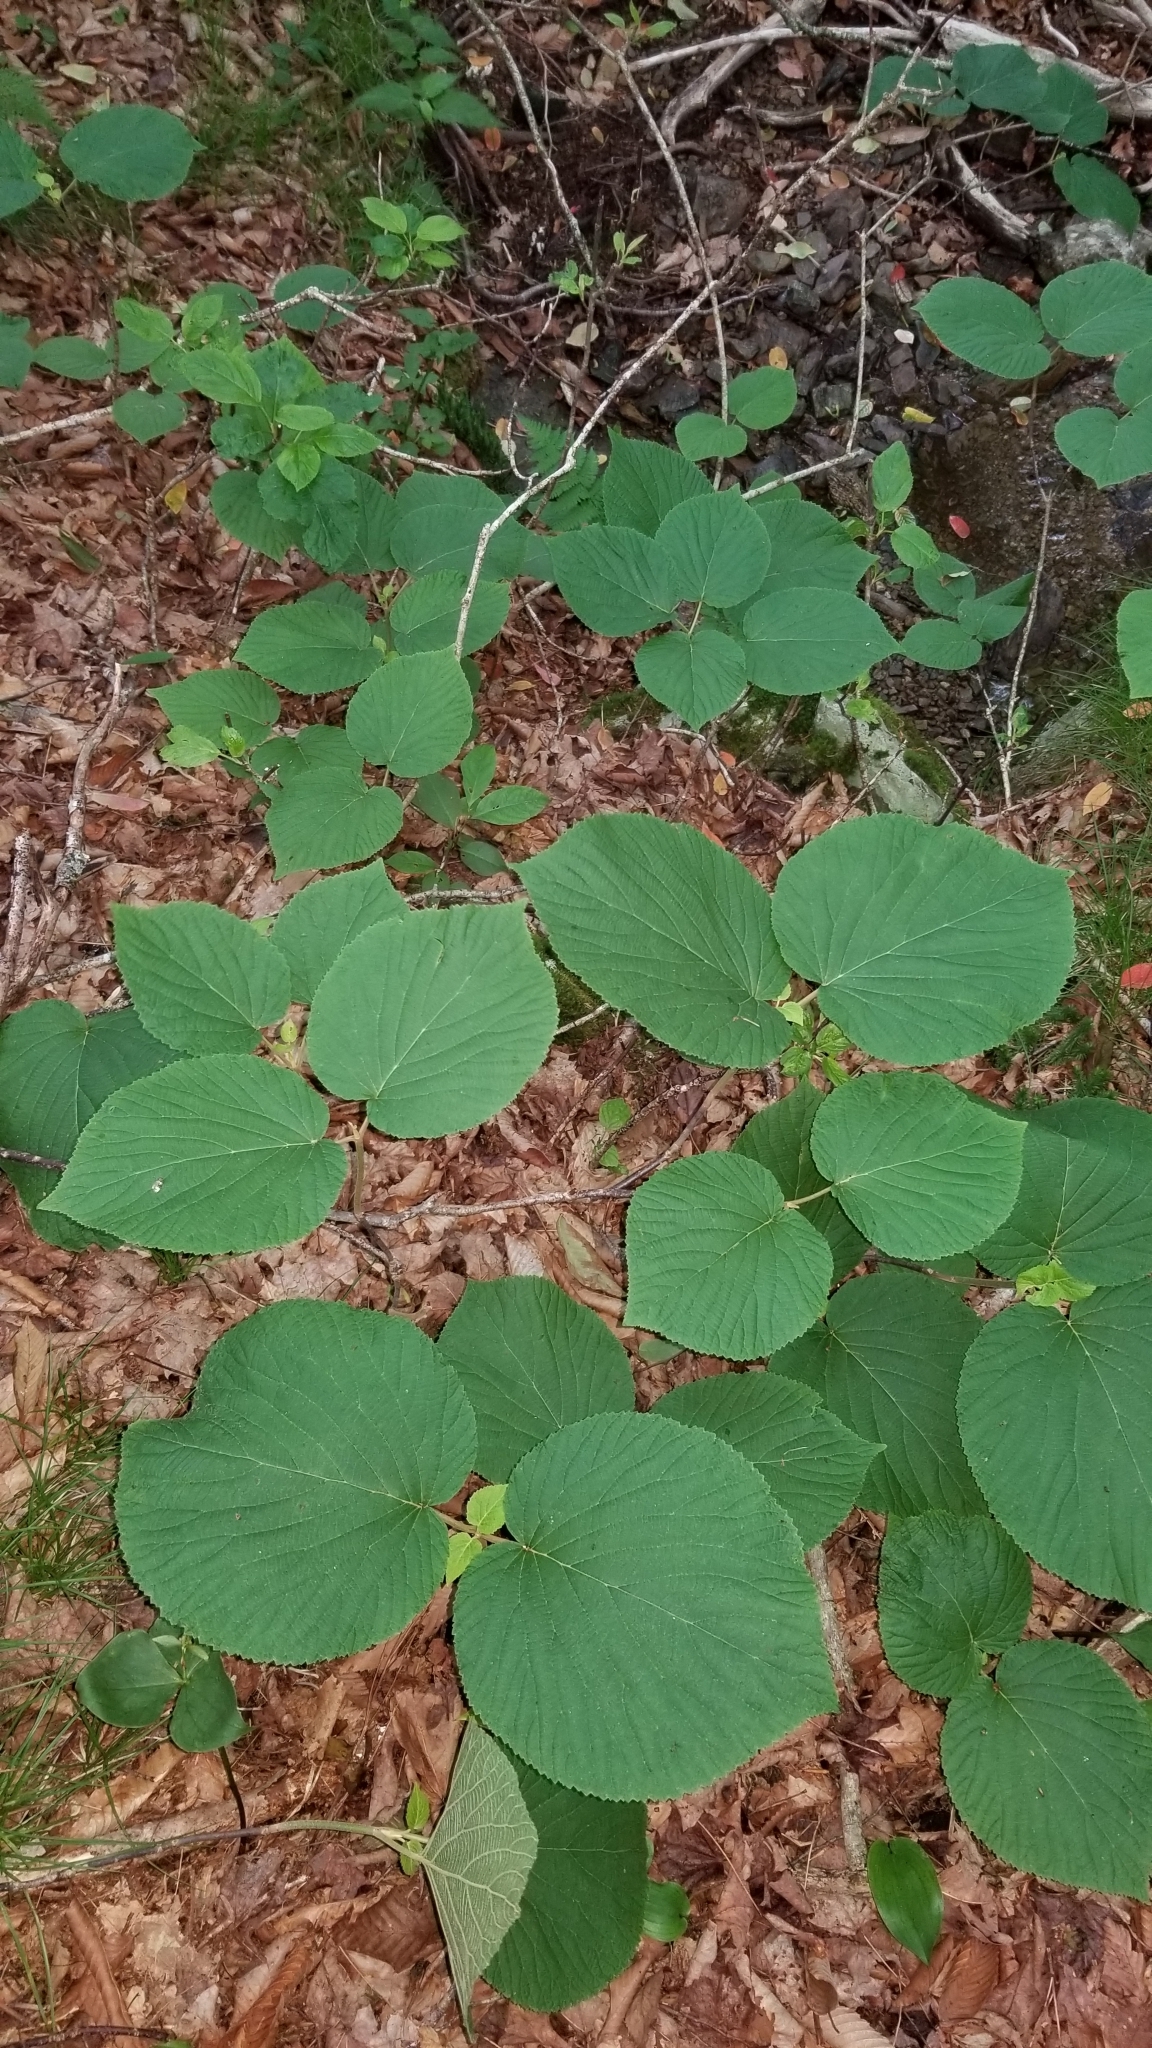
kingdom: Plantae
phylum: Tracheophyta
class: Magnoliopsida
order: Dipsacales
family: Viburnaceae
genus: Viburnum
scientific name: Viburnum lantanoides
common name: Hobblebush
